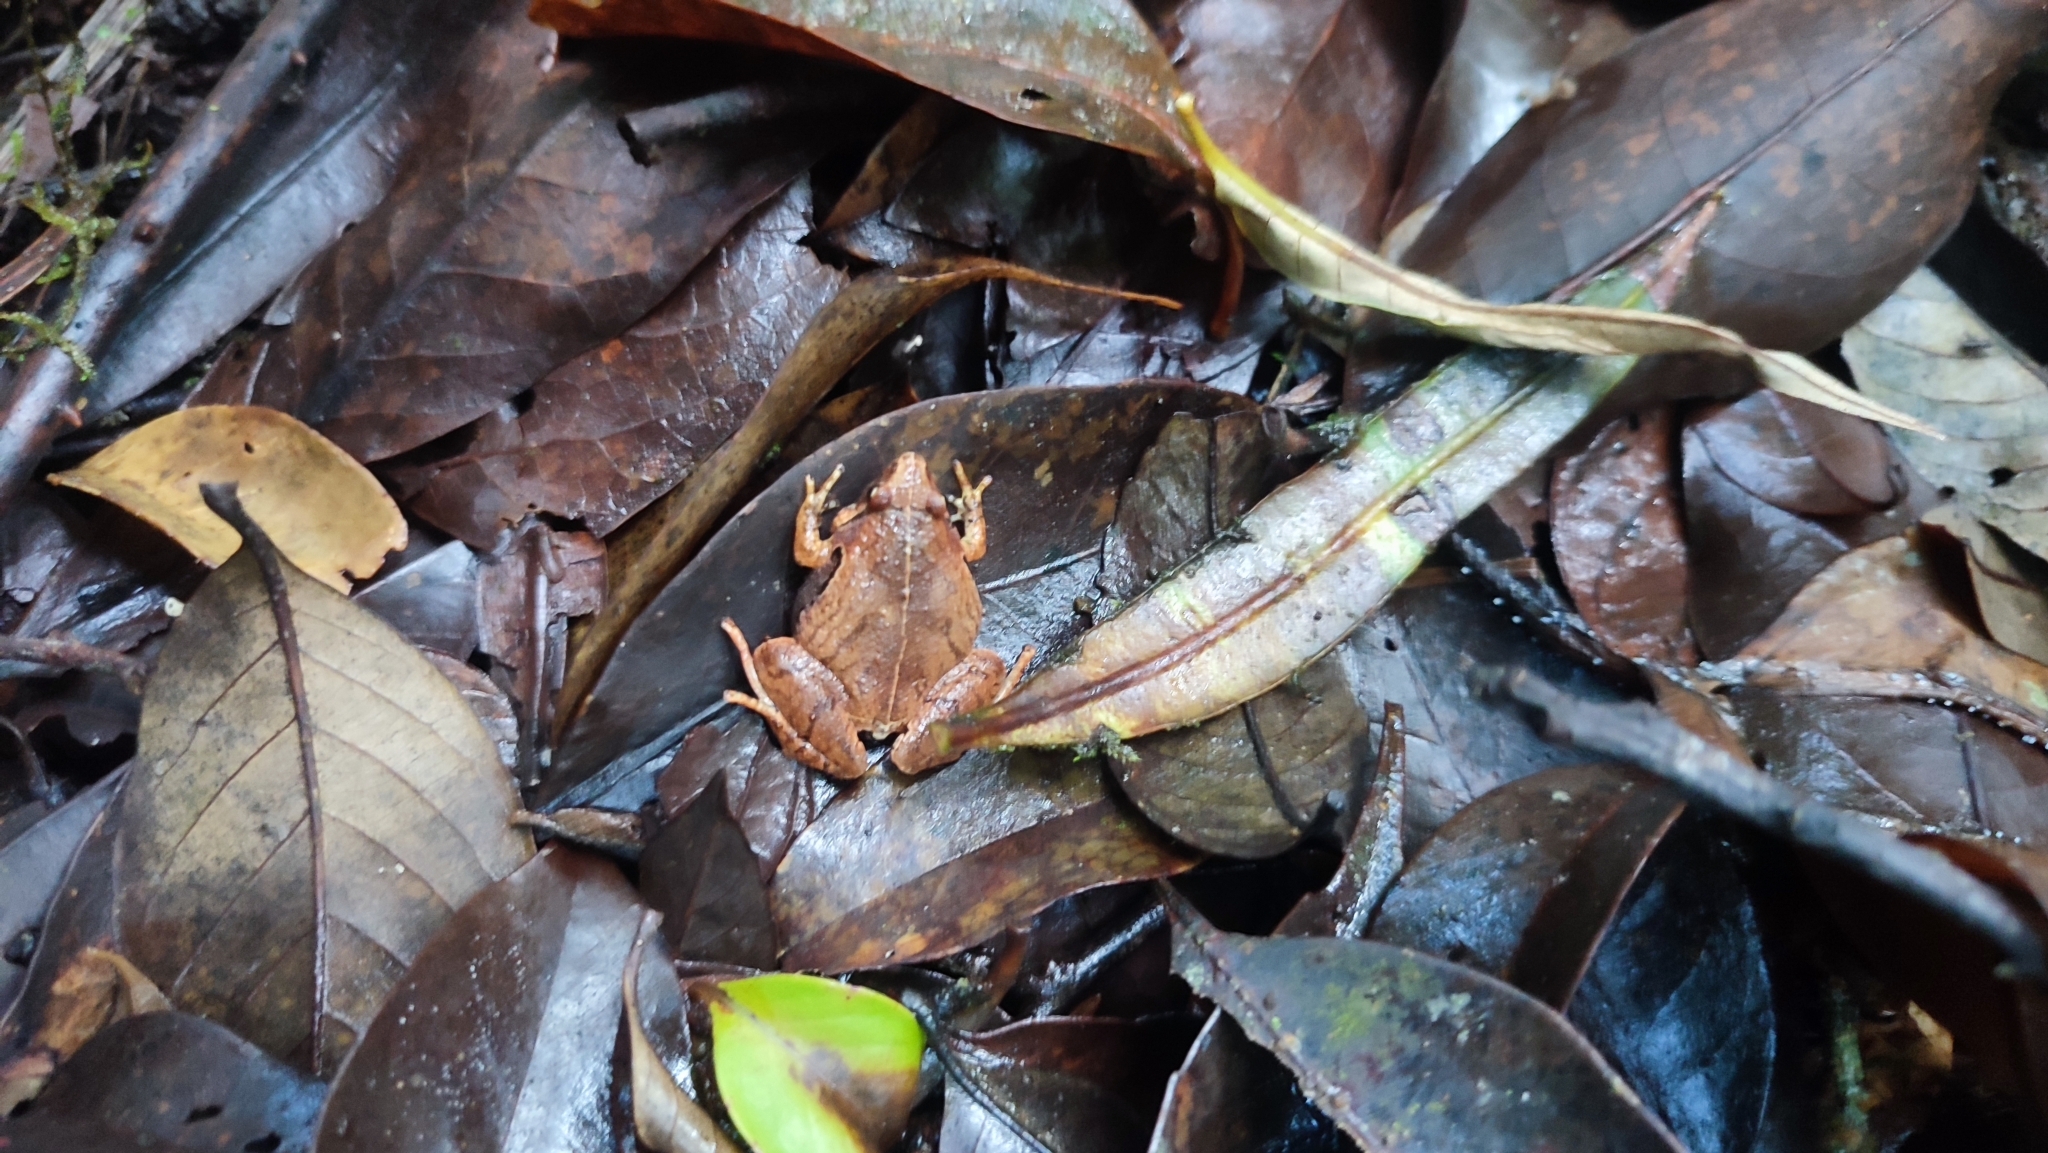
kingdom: Animalia
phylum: Chordata
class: Amphibia
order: Anura
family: Microhylidae
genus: Microhyla
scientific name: Microhyla achatina
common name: Javan chorus frog
